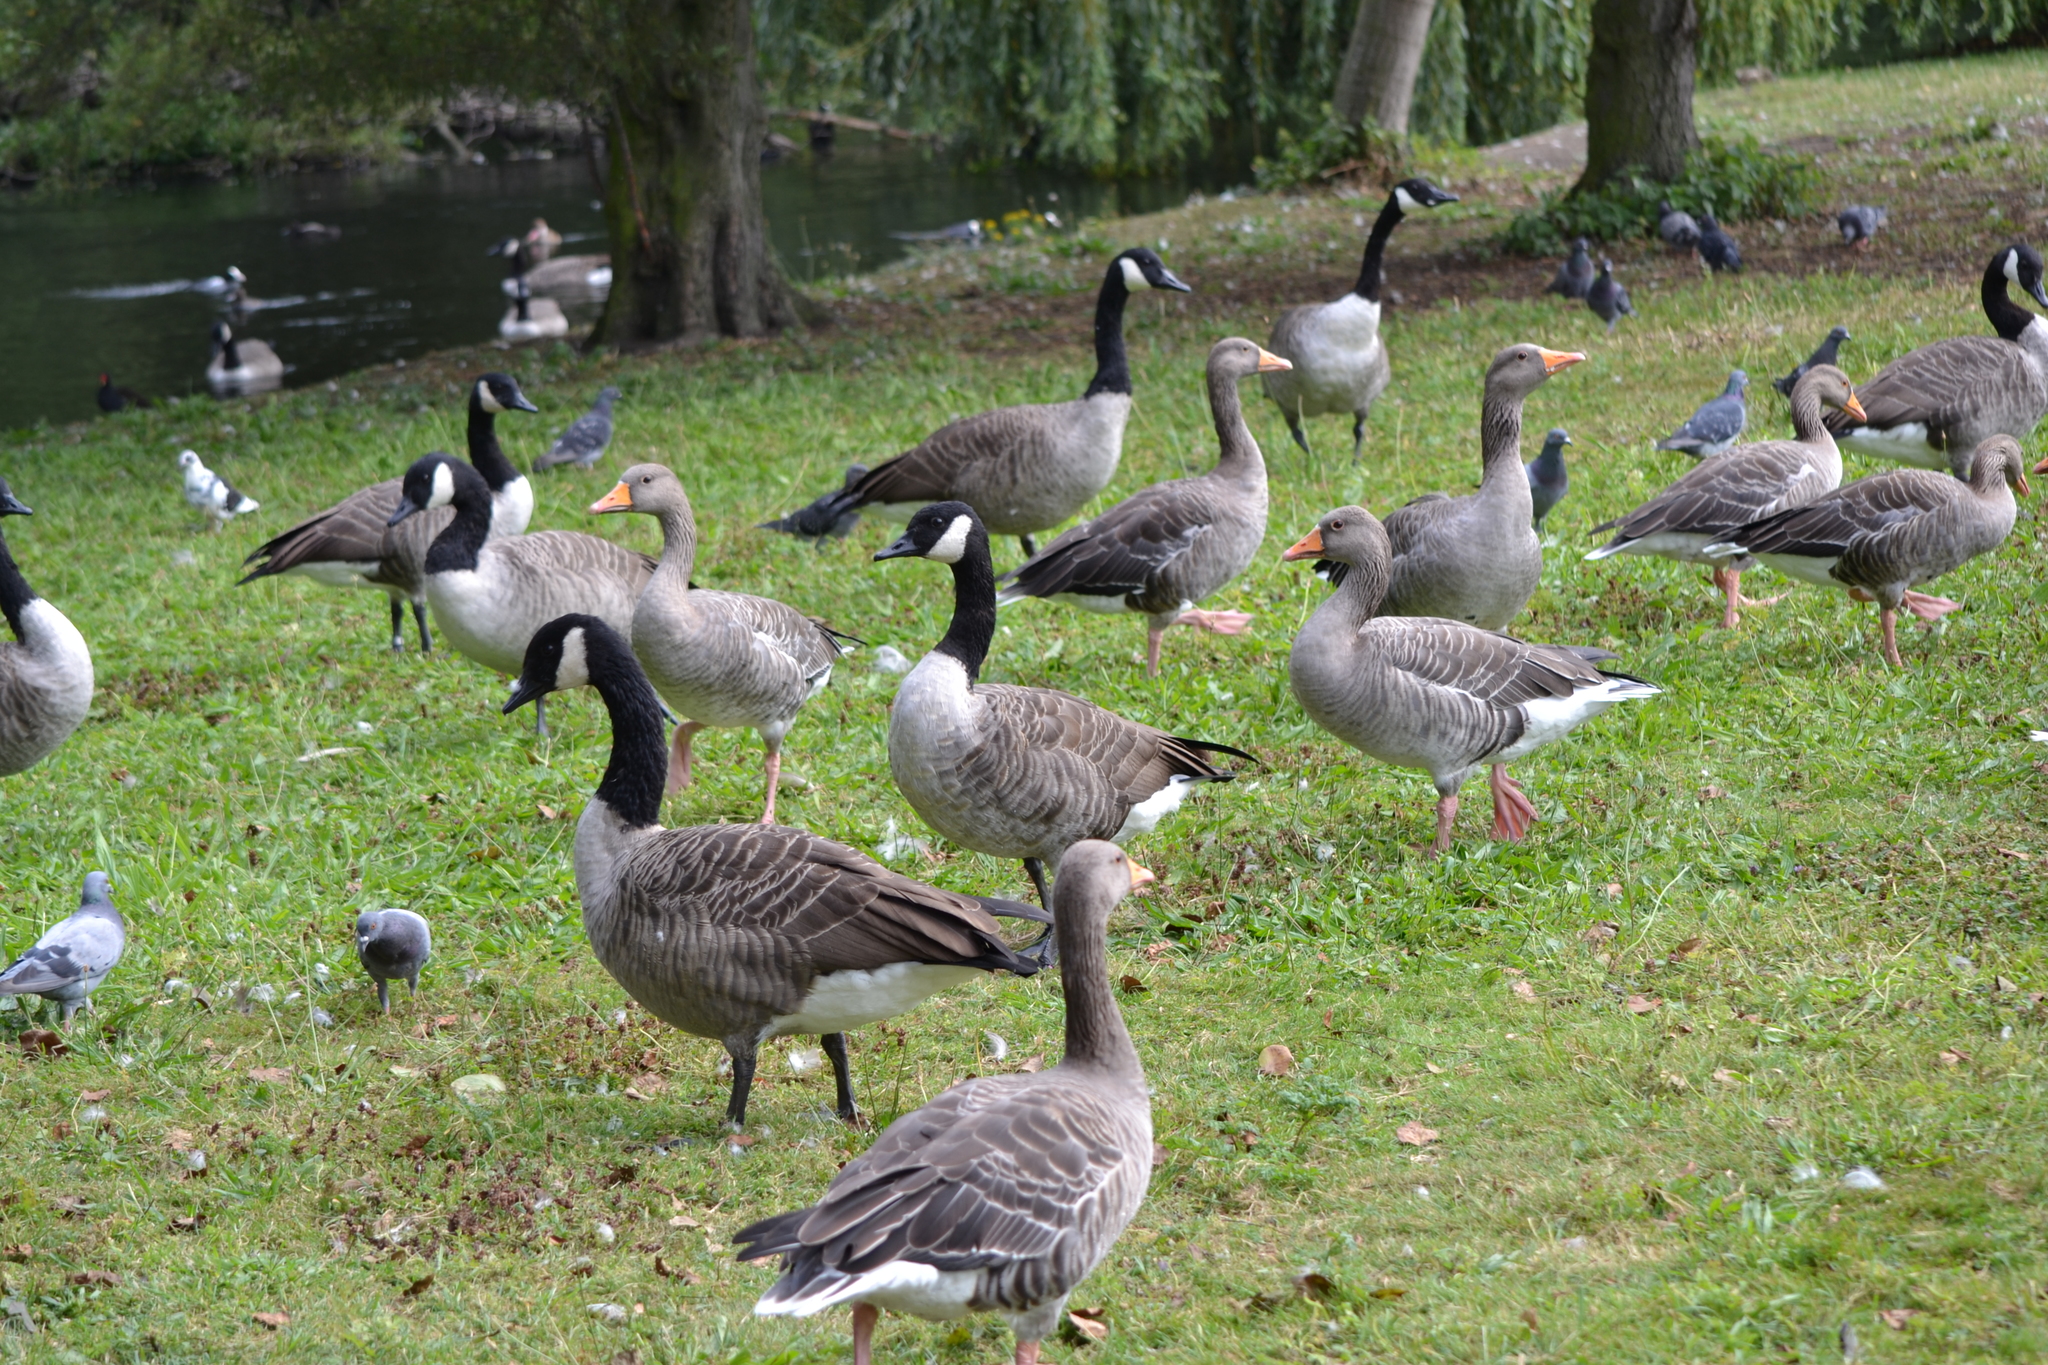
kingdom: Animalia
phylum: Chordata
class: Aves
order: Anseriformes
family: Anatidae
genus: Branta
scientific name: Branta canadensis
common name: Canada goose
